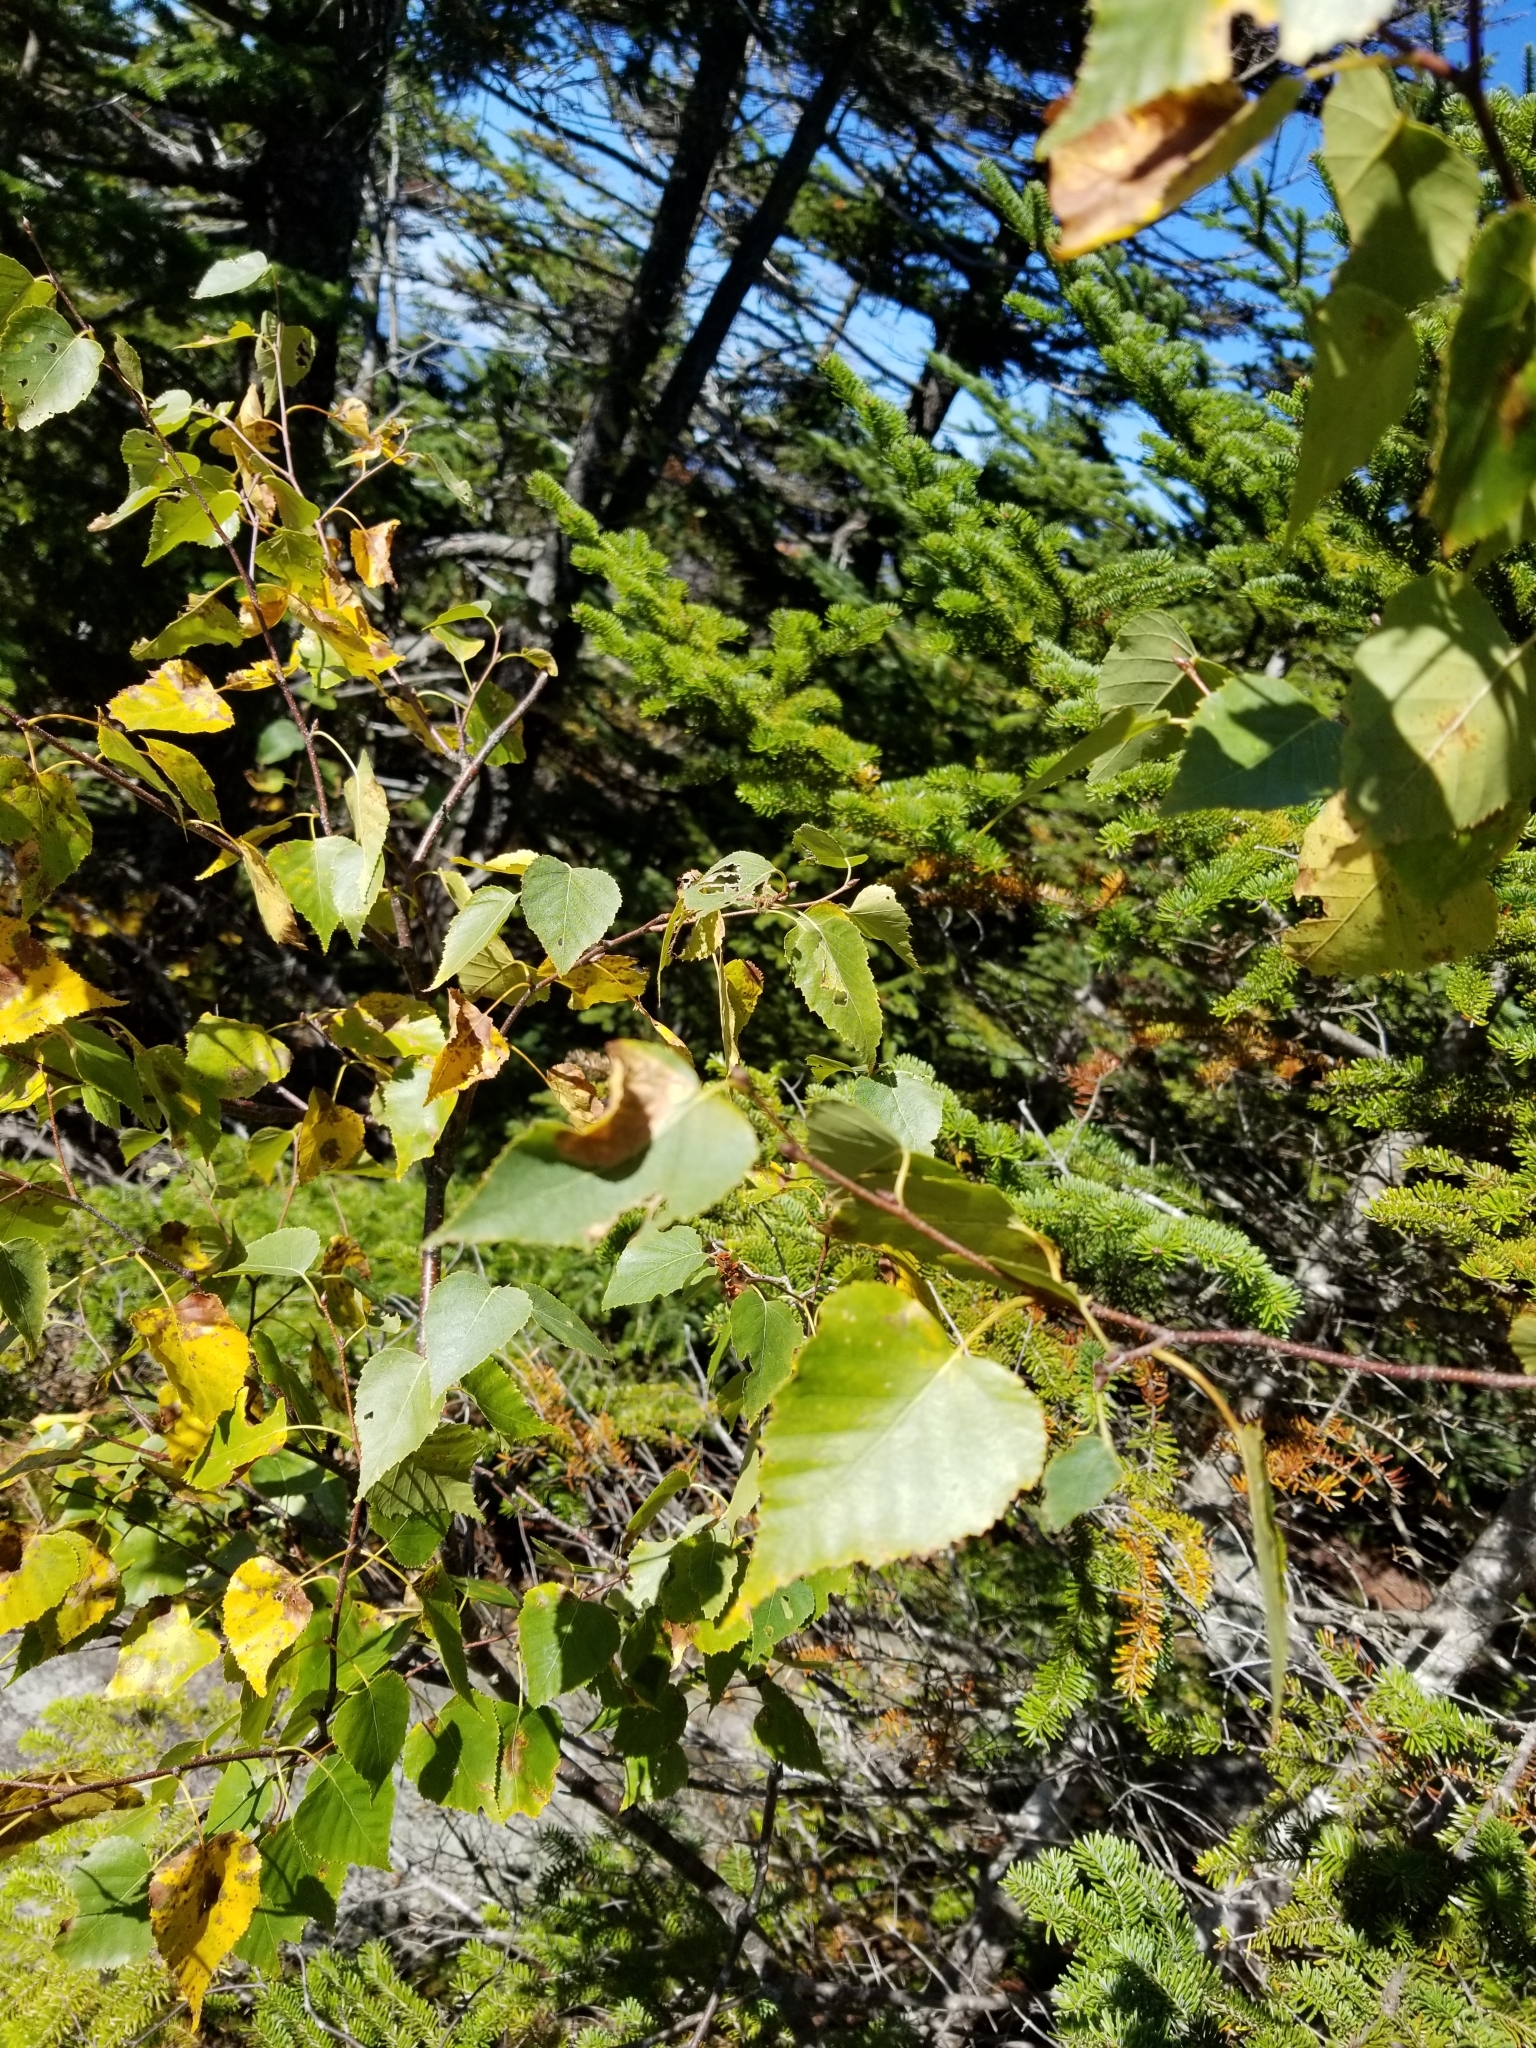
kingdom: Plantae
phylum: Tracheophyta
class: Magnoliopsida
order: Fagales
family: Betulaceae
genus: Betula
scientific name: Betula cordifolia
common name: Mountain white birch
